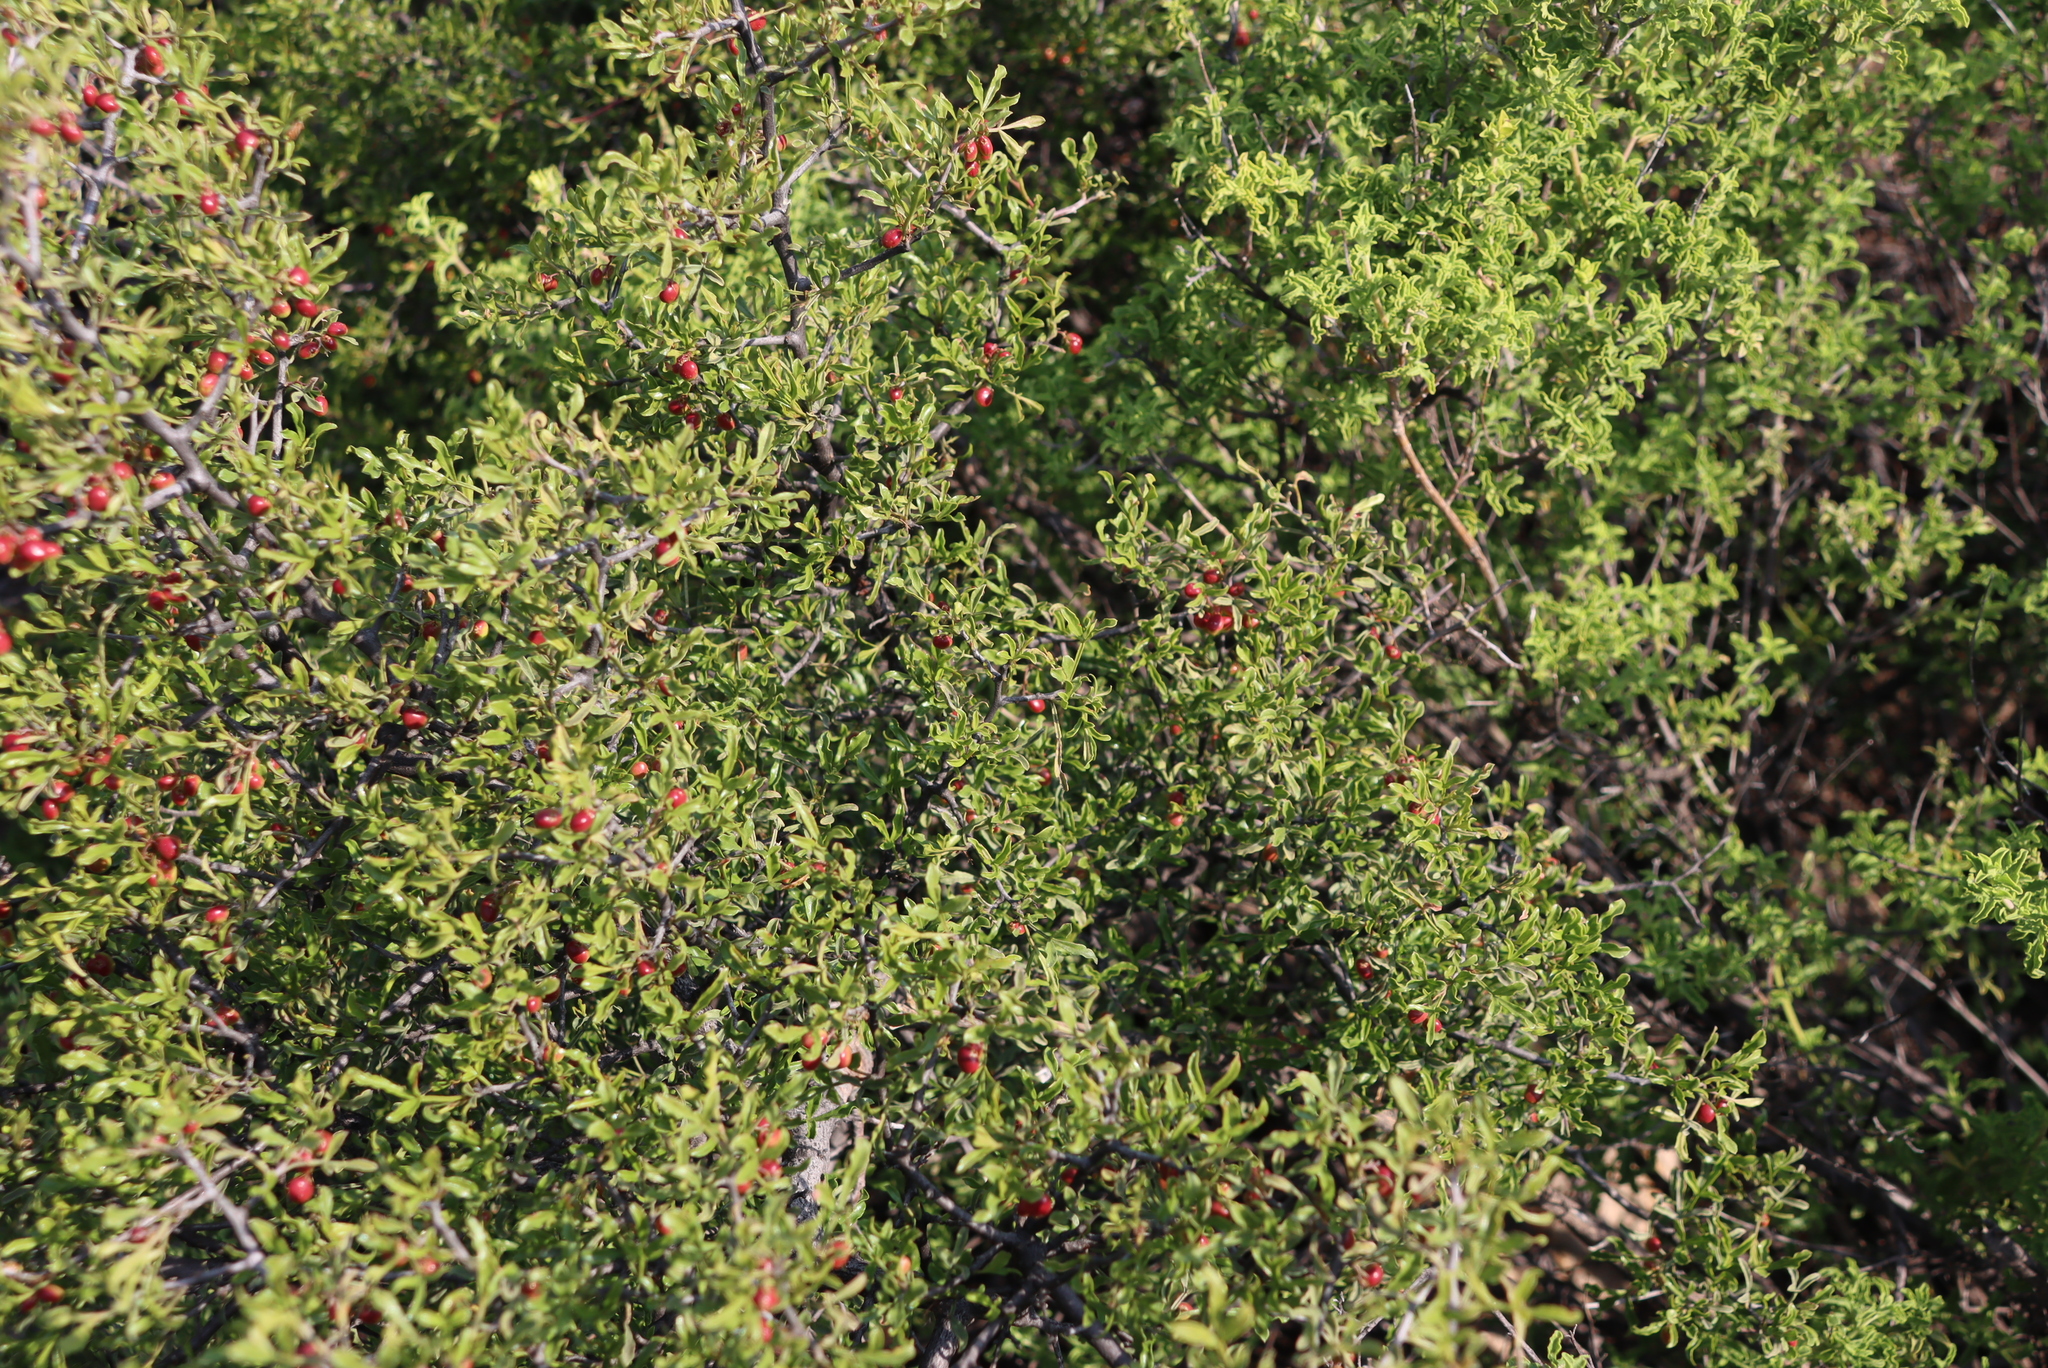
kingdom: Plantae
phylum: Tracheophyta
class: Magnoliopsida
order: Sapindales
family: Anacardiaceae
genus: Searsia
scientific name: Searsia undulata
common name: Namaqua kunibush
